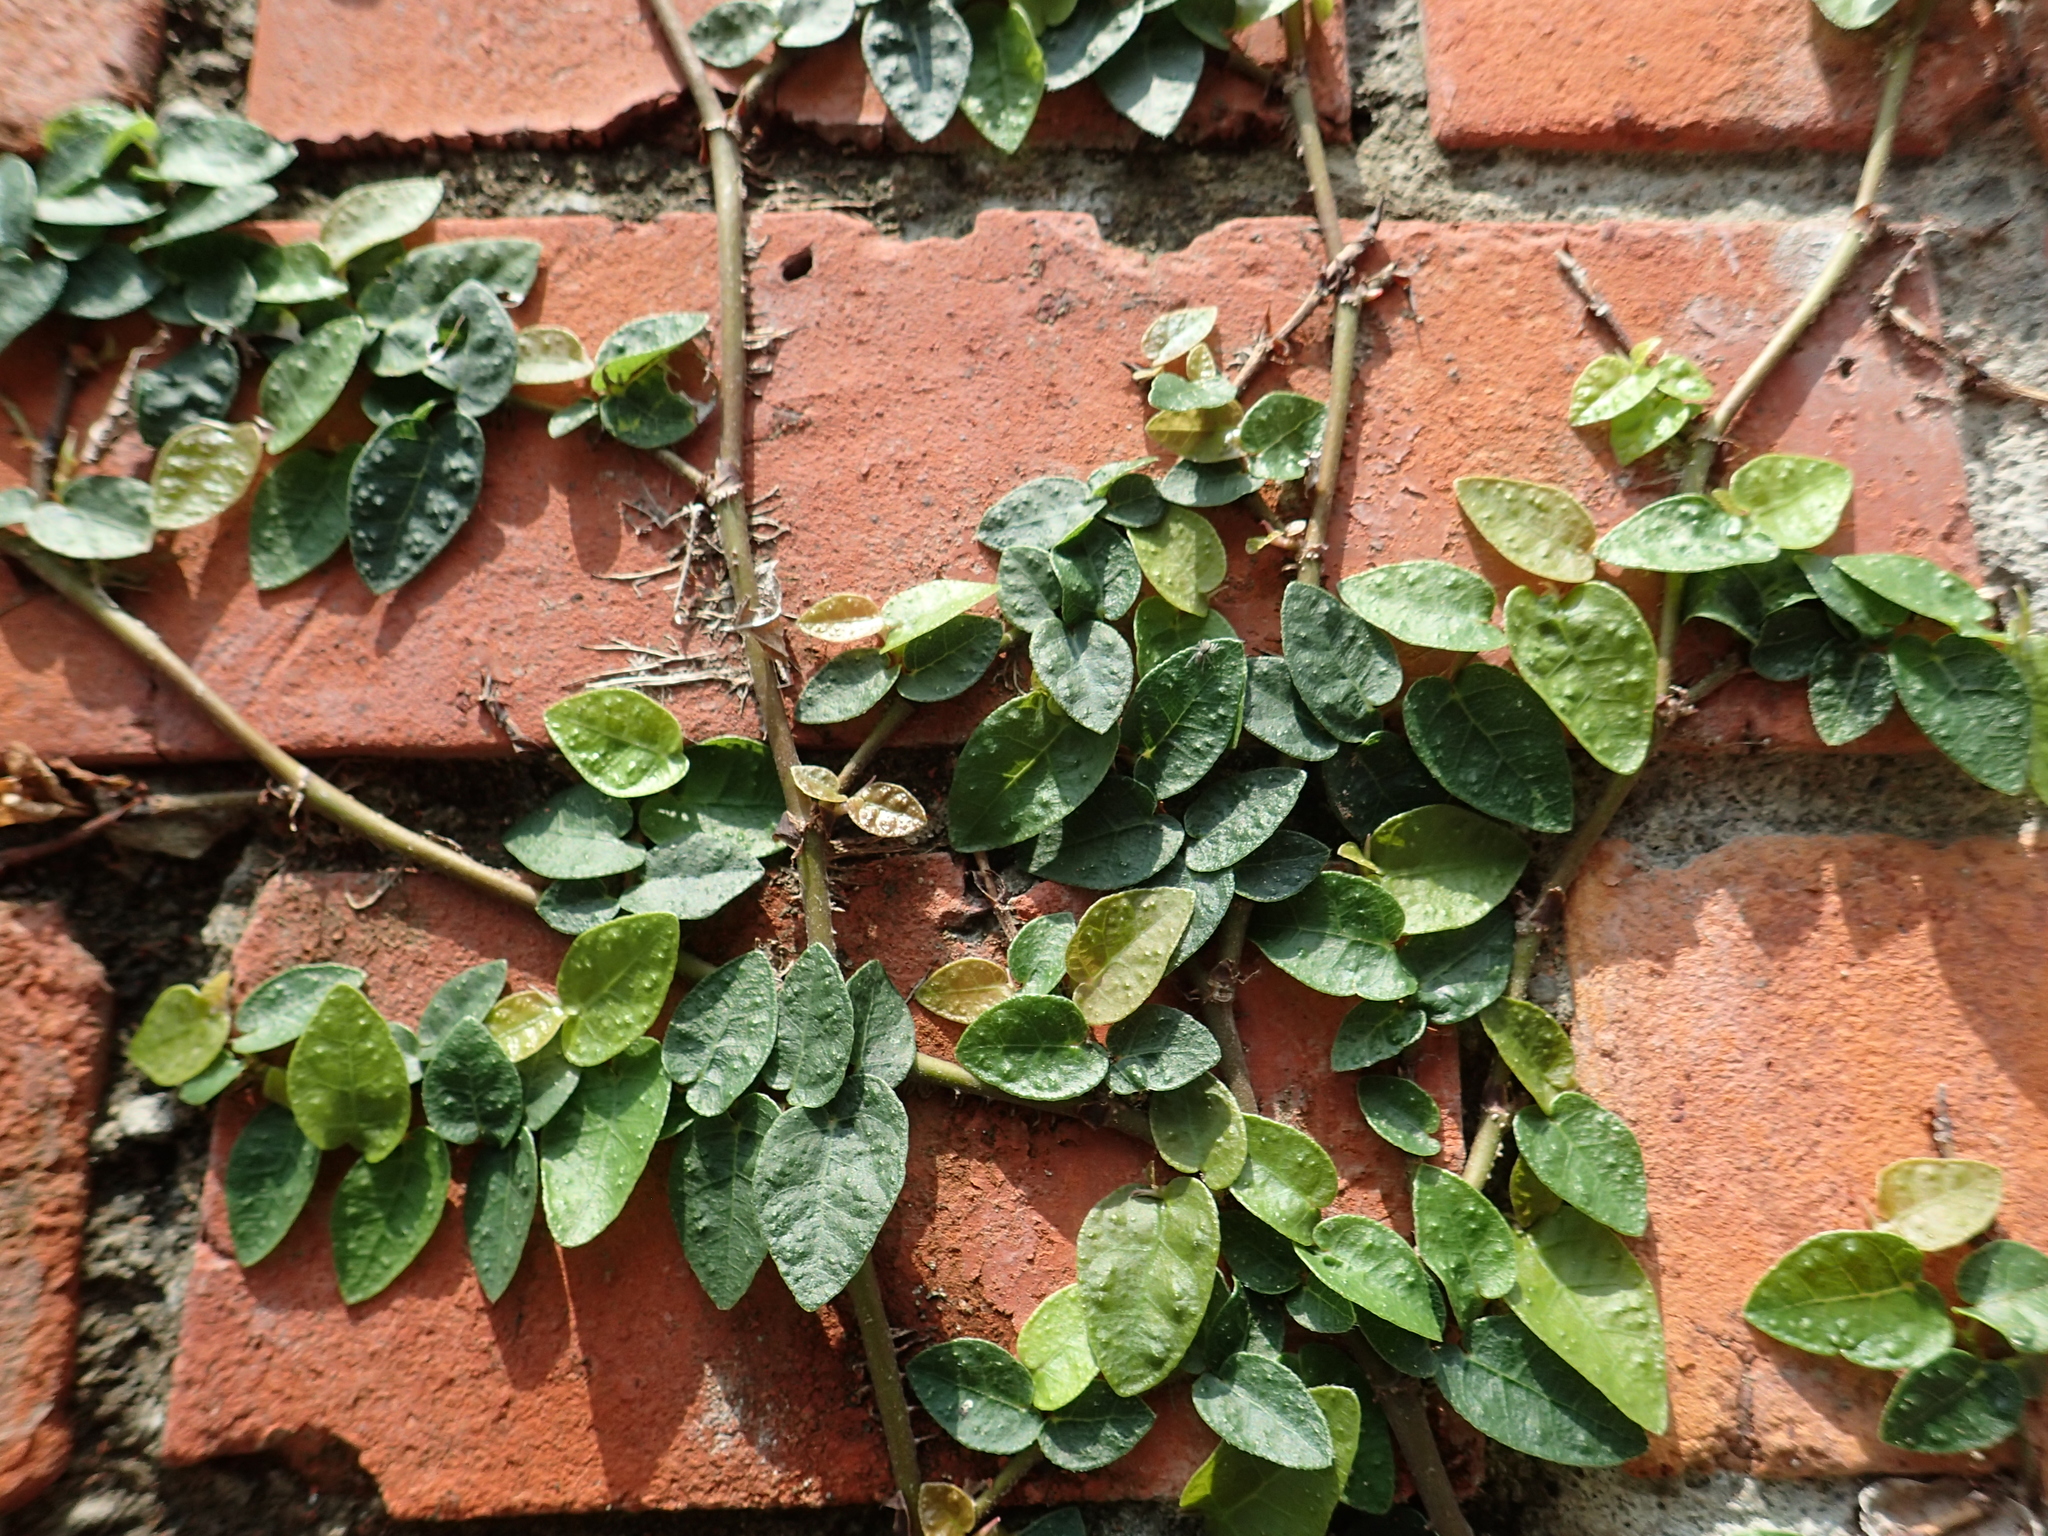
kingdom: Plantae
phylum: Tracheophyta
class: Magnoliopsida
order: Rosales
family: Moraceae
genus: Ficus
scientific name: Ficus pumila
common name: Climbingfig
